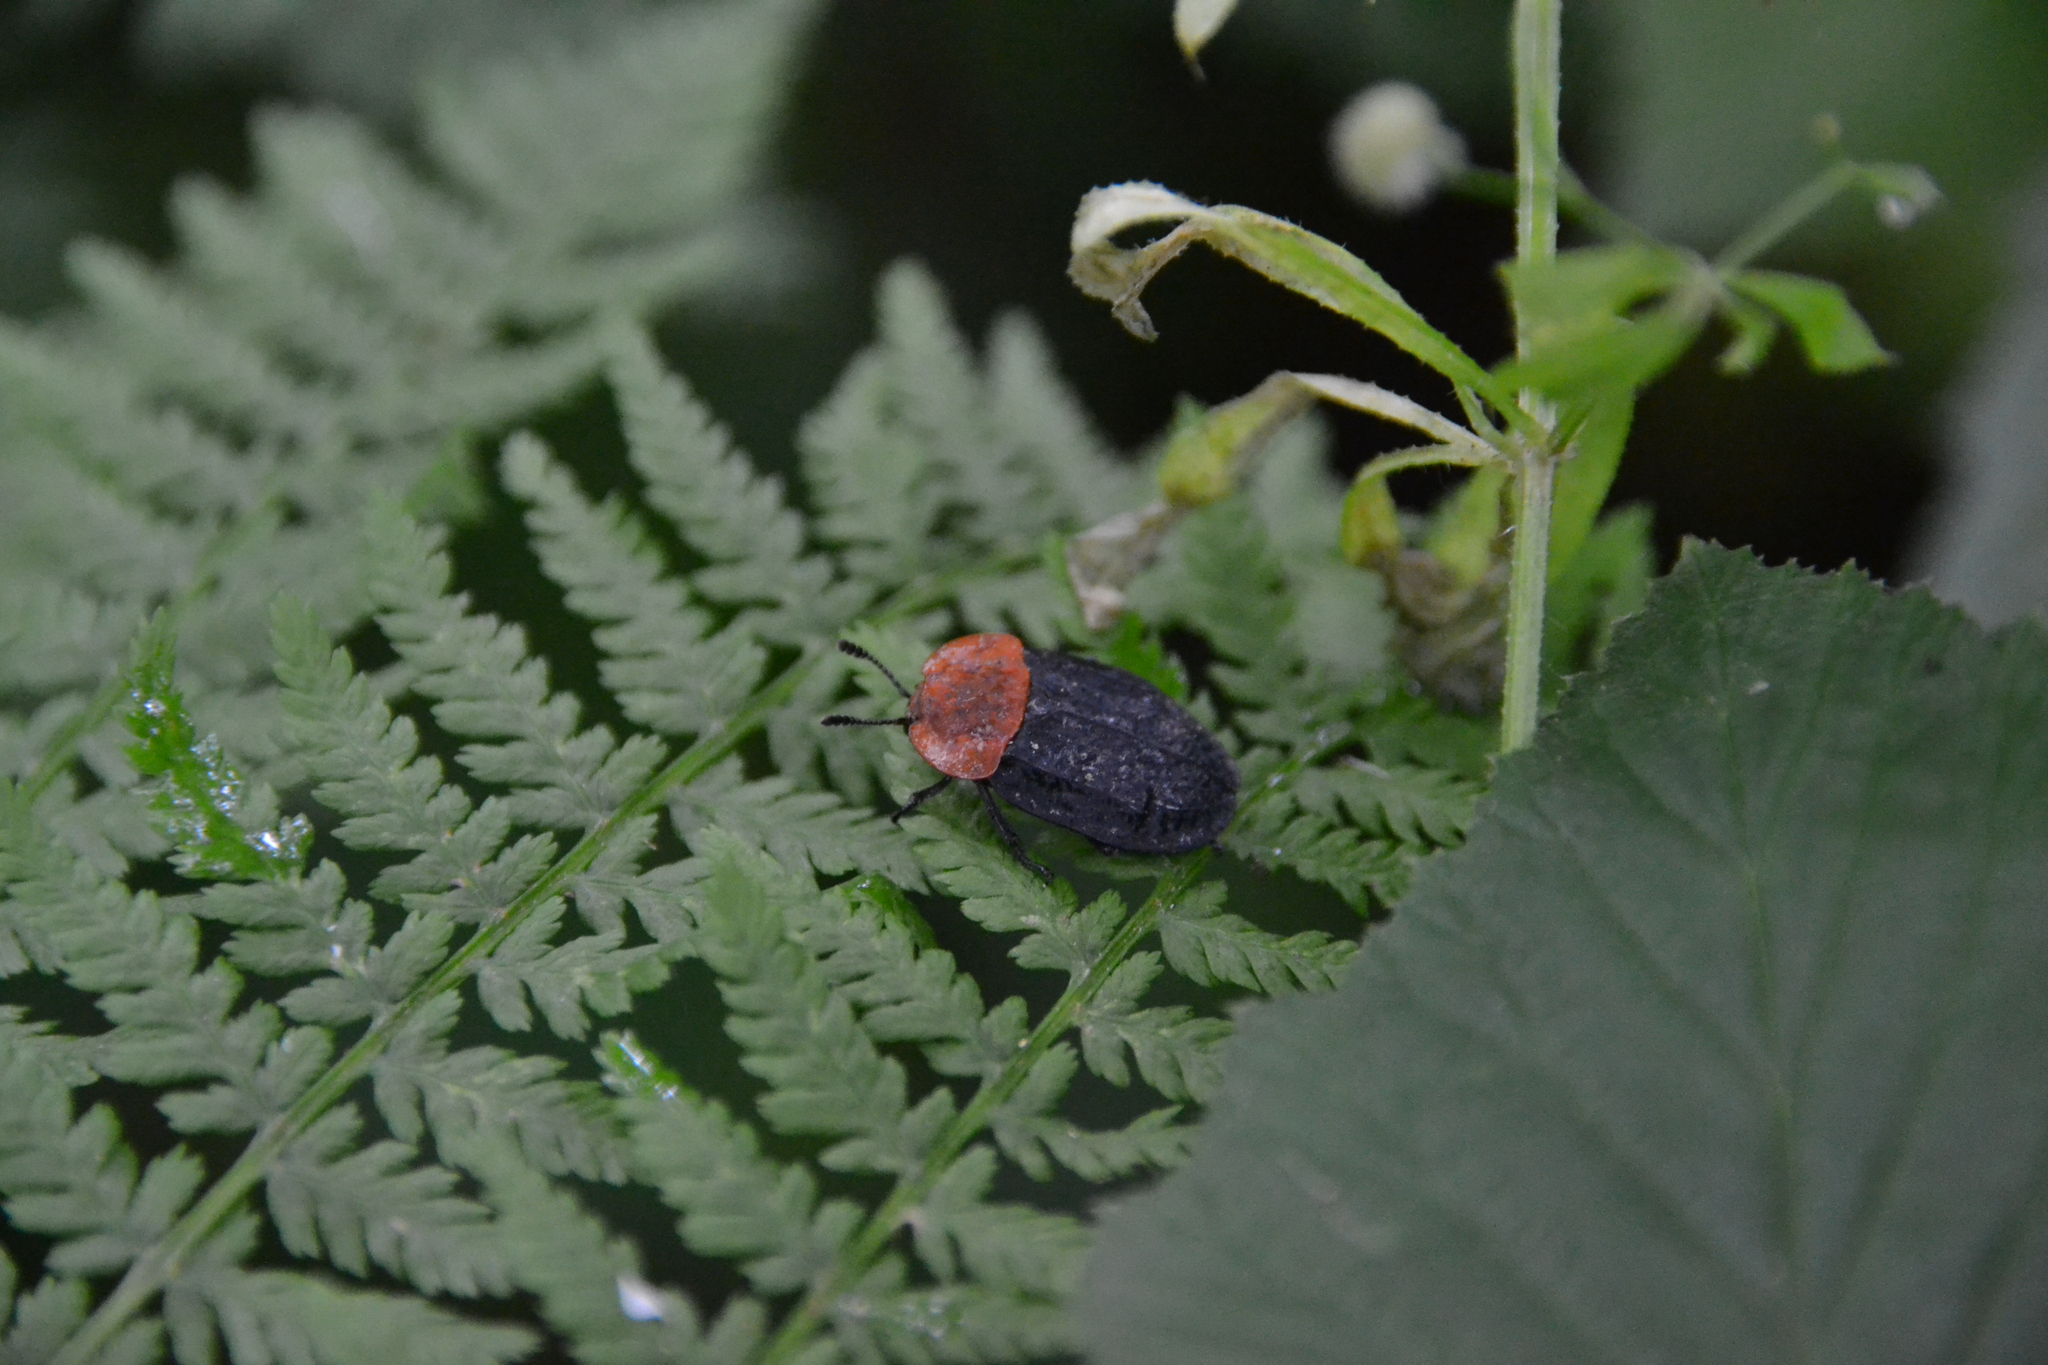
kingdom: Animalia
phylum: Arthropoda
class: Insecta
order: Coleoptera
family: Staphylinidae
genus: Oiceoptoma
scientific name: Oiceoptoma thoracicum
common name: Red-breasted carrion beetle
